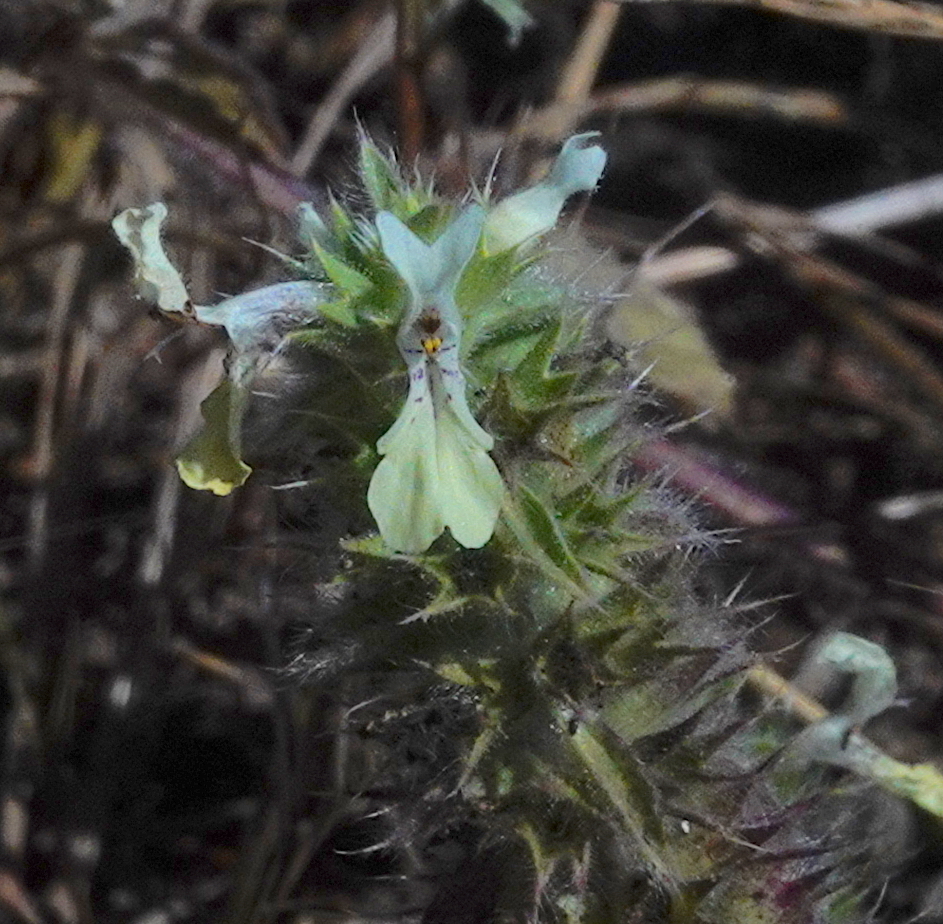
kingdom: Plantae
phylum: Tracheophyta
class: Magnoliopsida
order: Lamiales
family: Lamiaceae
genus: Stachys
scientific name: Stachys ocymastrum
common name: Italian hedgenettle
